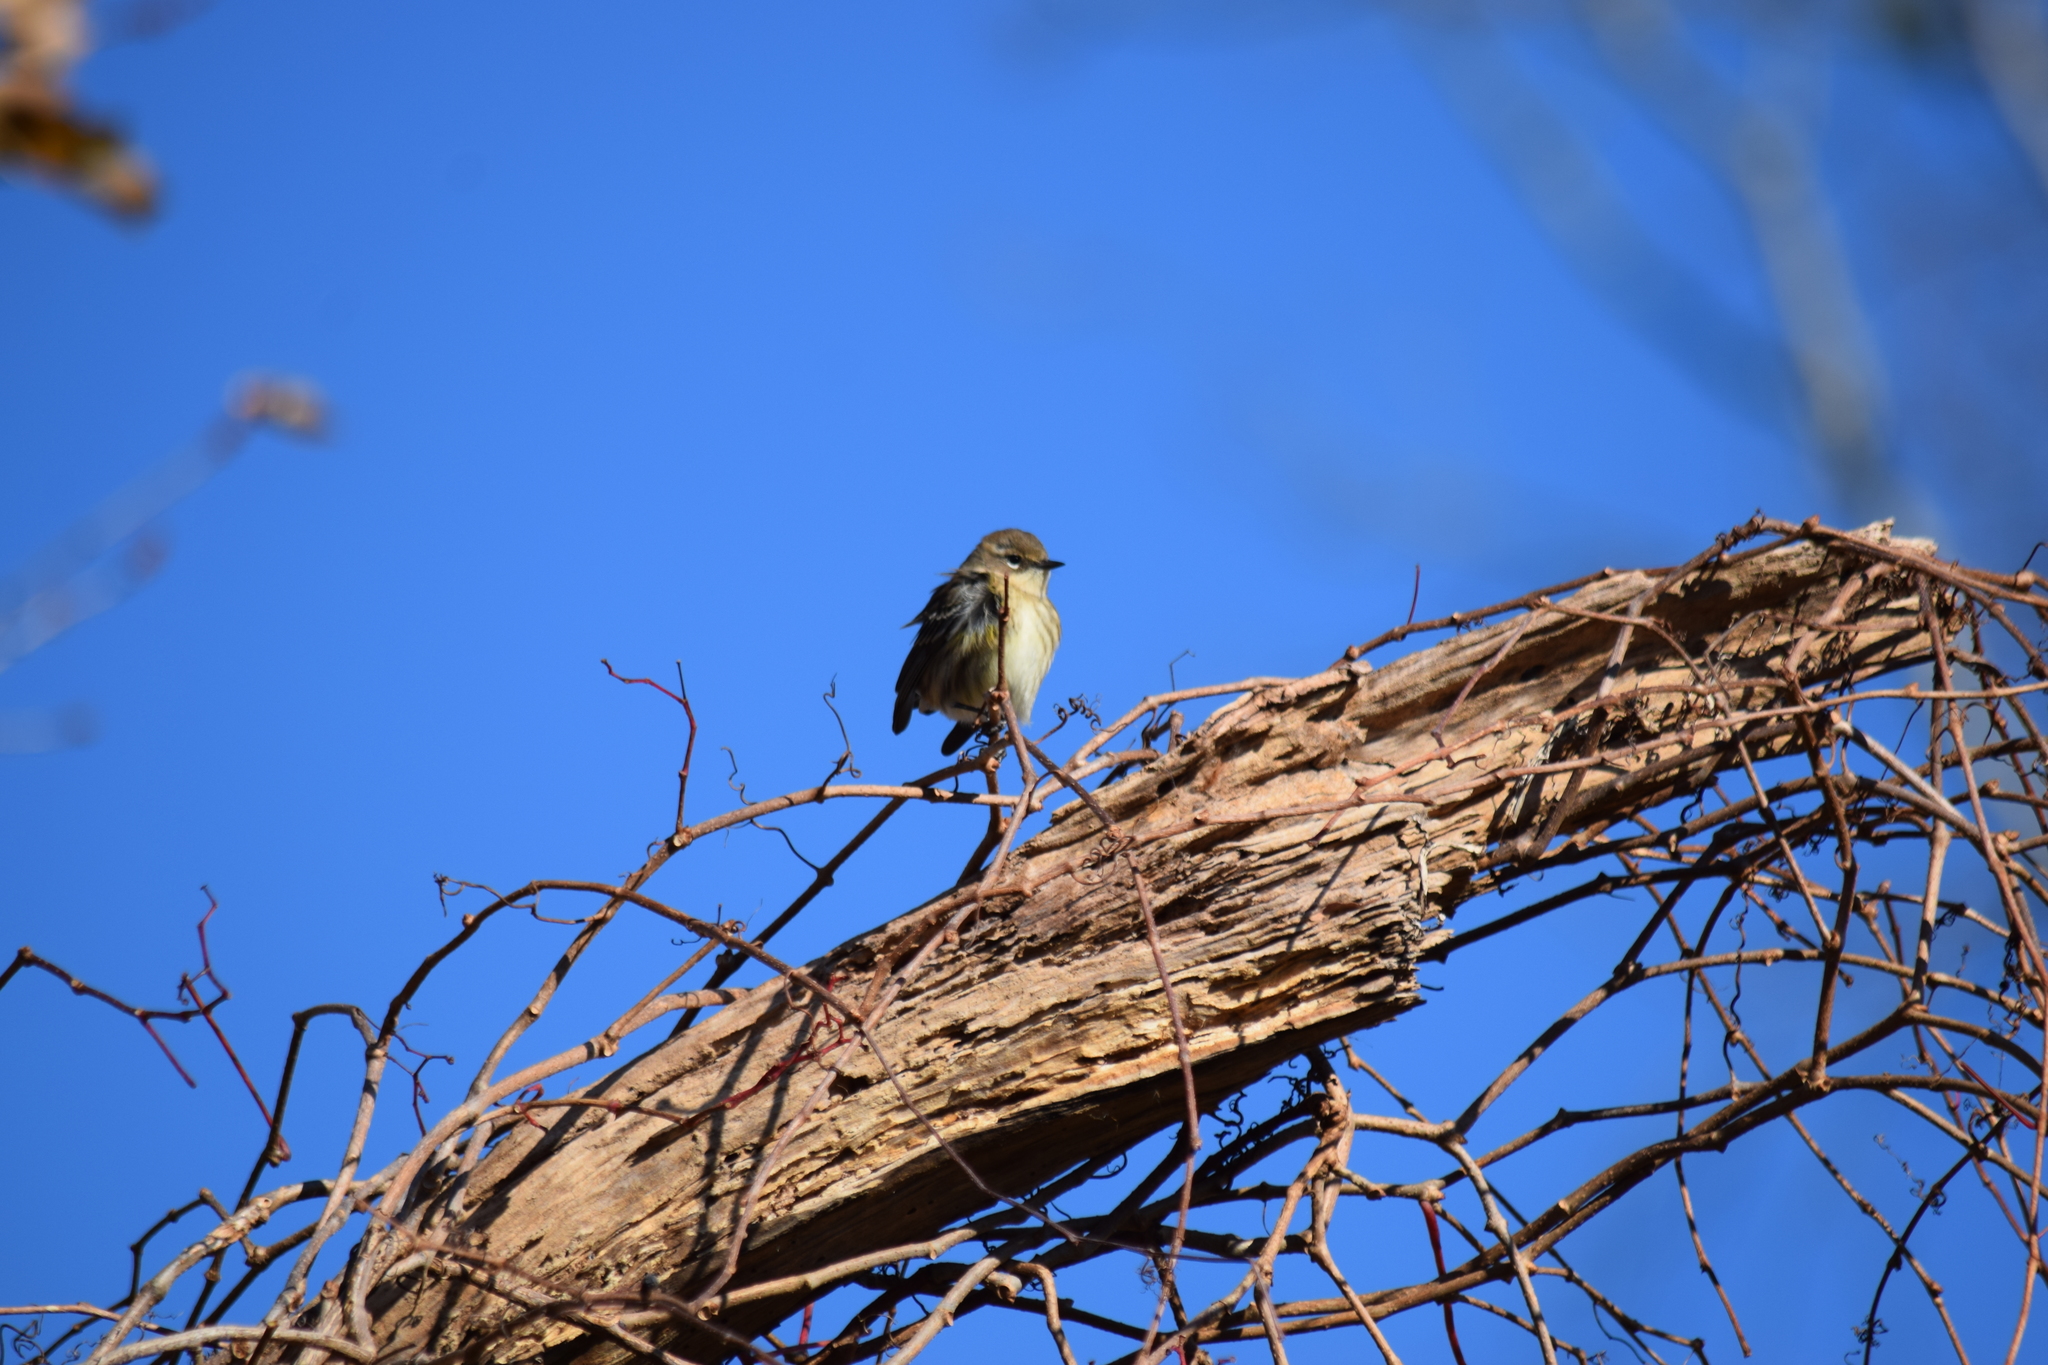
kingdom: Animalia
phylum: Chordata
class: Aves
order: Passeriformes
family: Parulidae
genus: Setophaga
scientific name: Setophaga coronata
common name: Myrtle warbler
